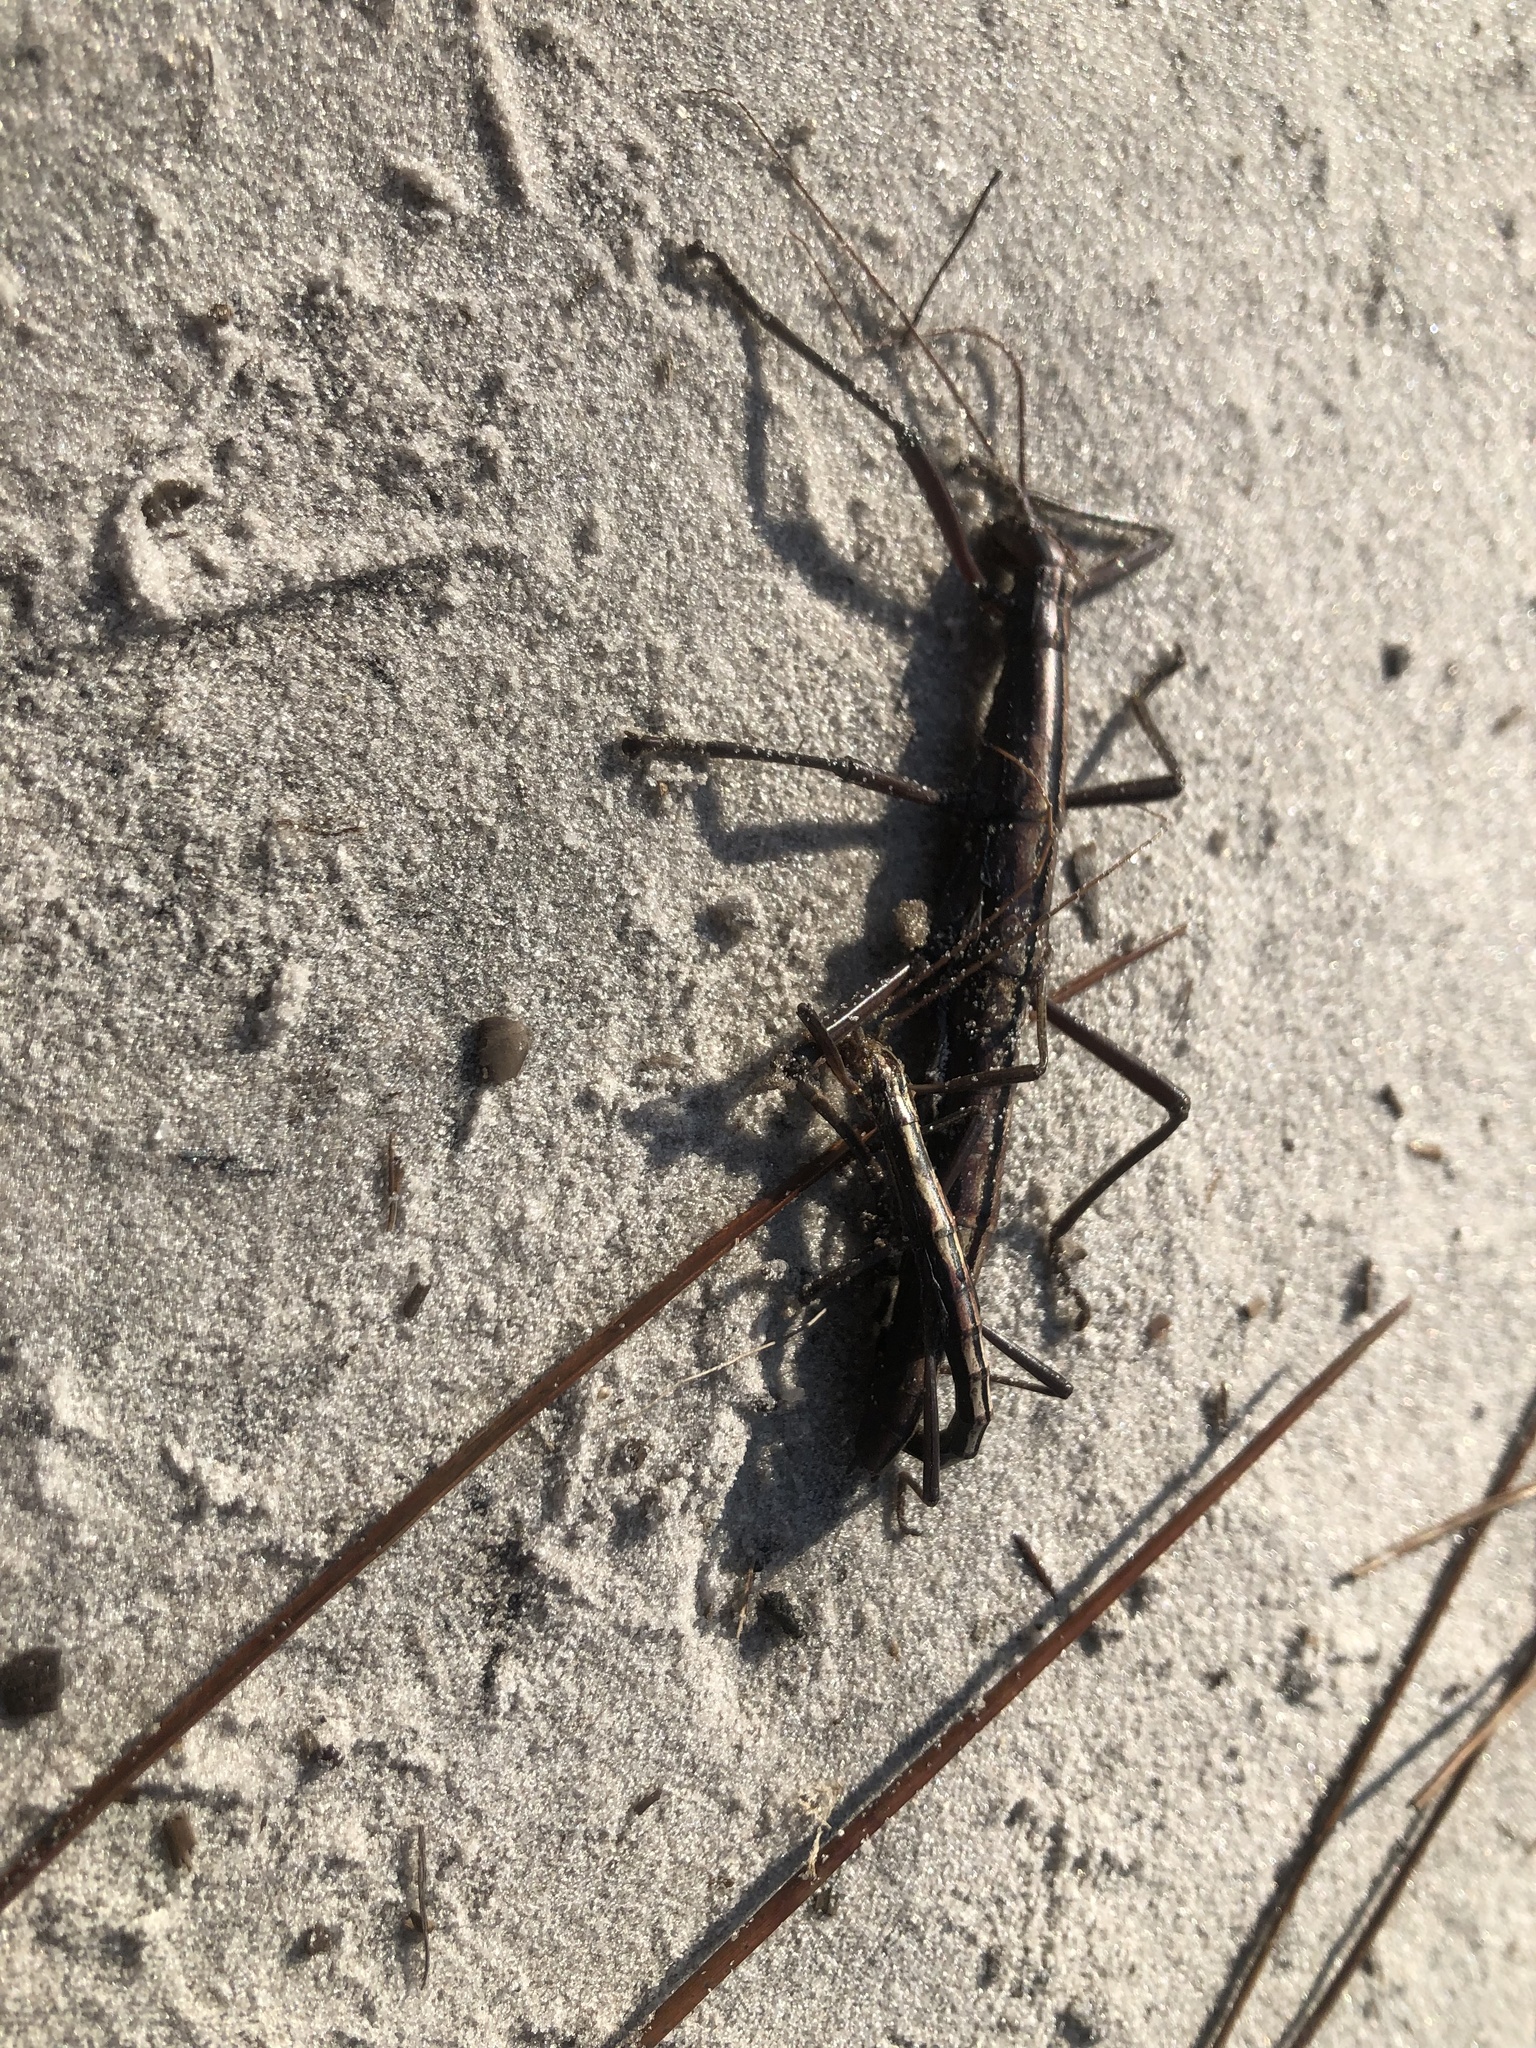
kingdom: Animalia
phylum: Arthropoda
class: Insecta
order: Phasmida
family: Pseudophasmatidae
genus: Anisomorpha
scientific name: Anisomorpha buprestoides
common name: Florida stick insect
